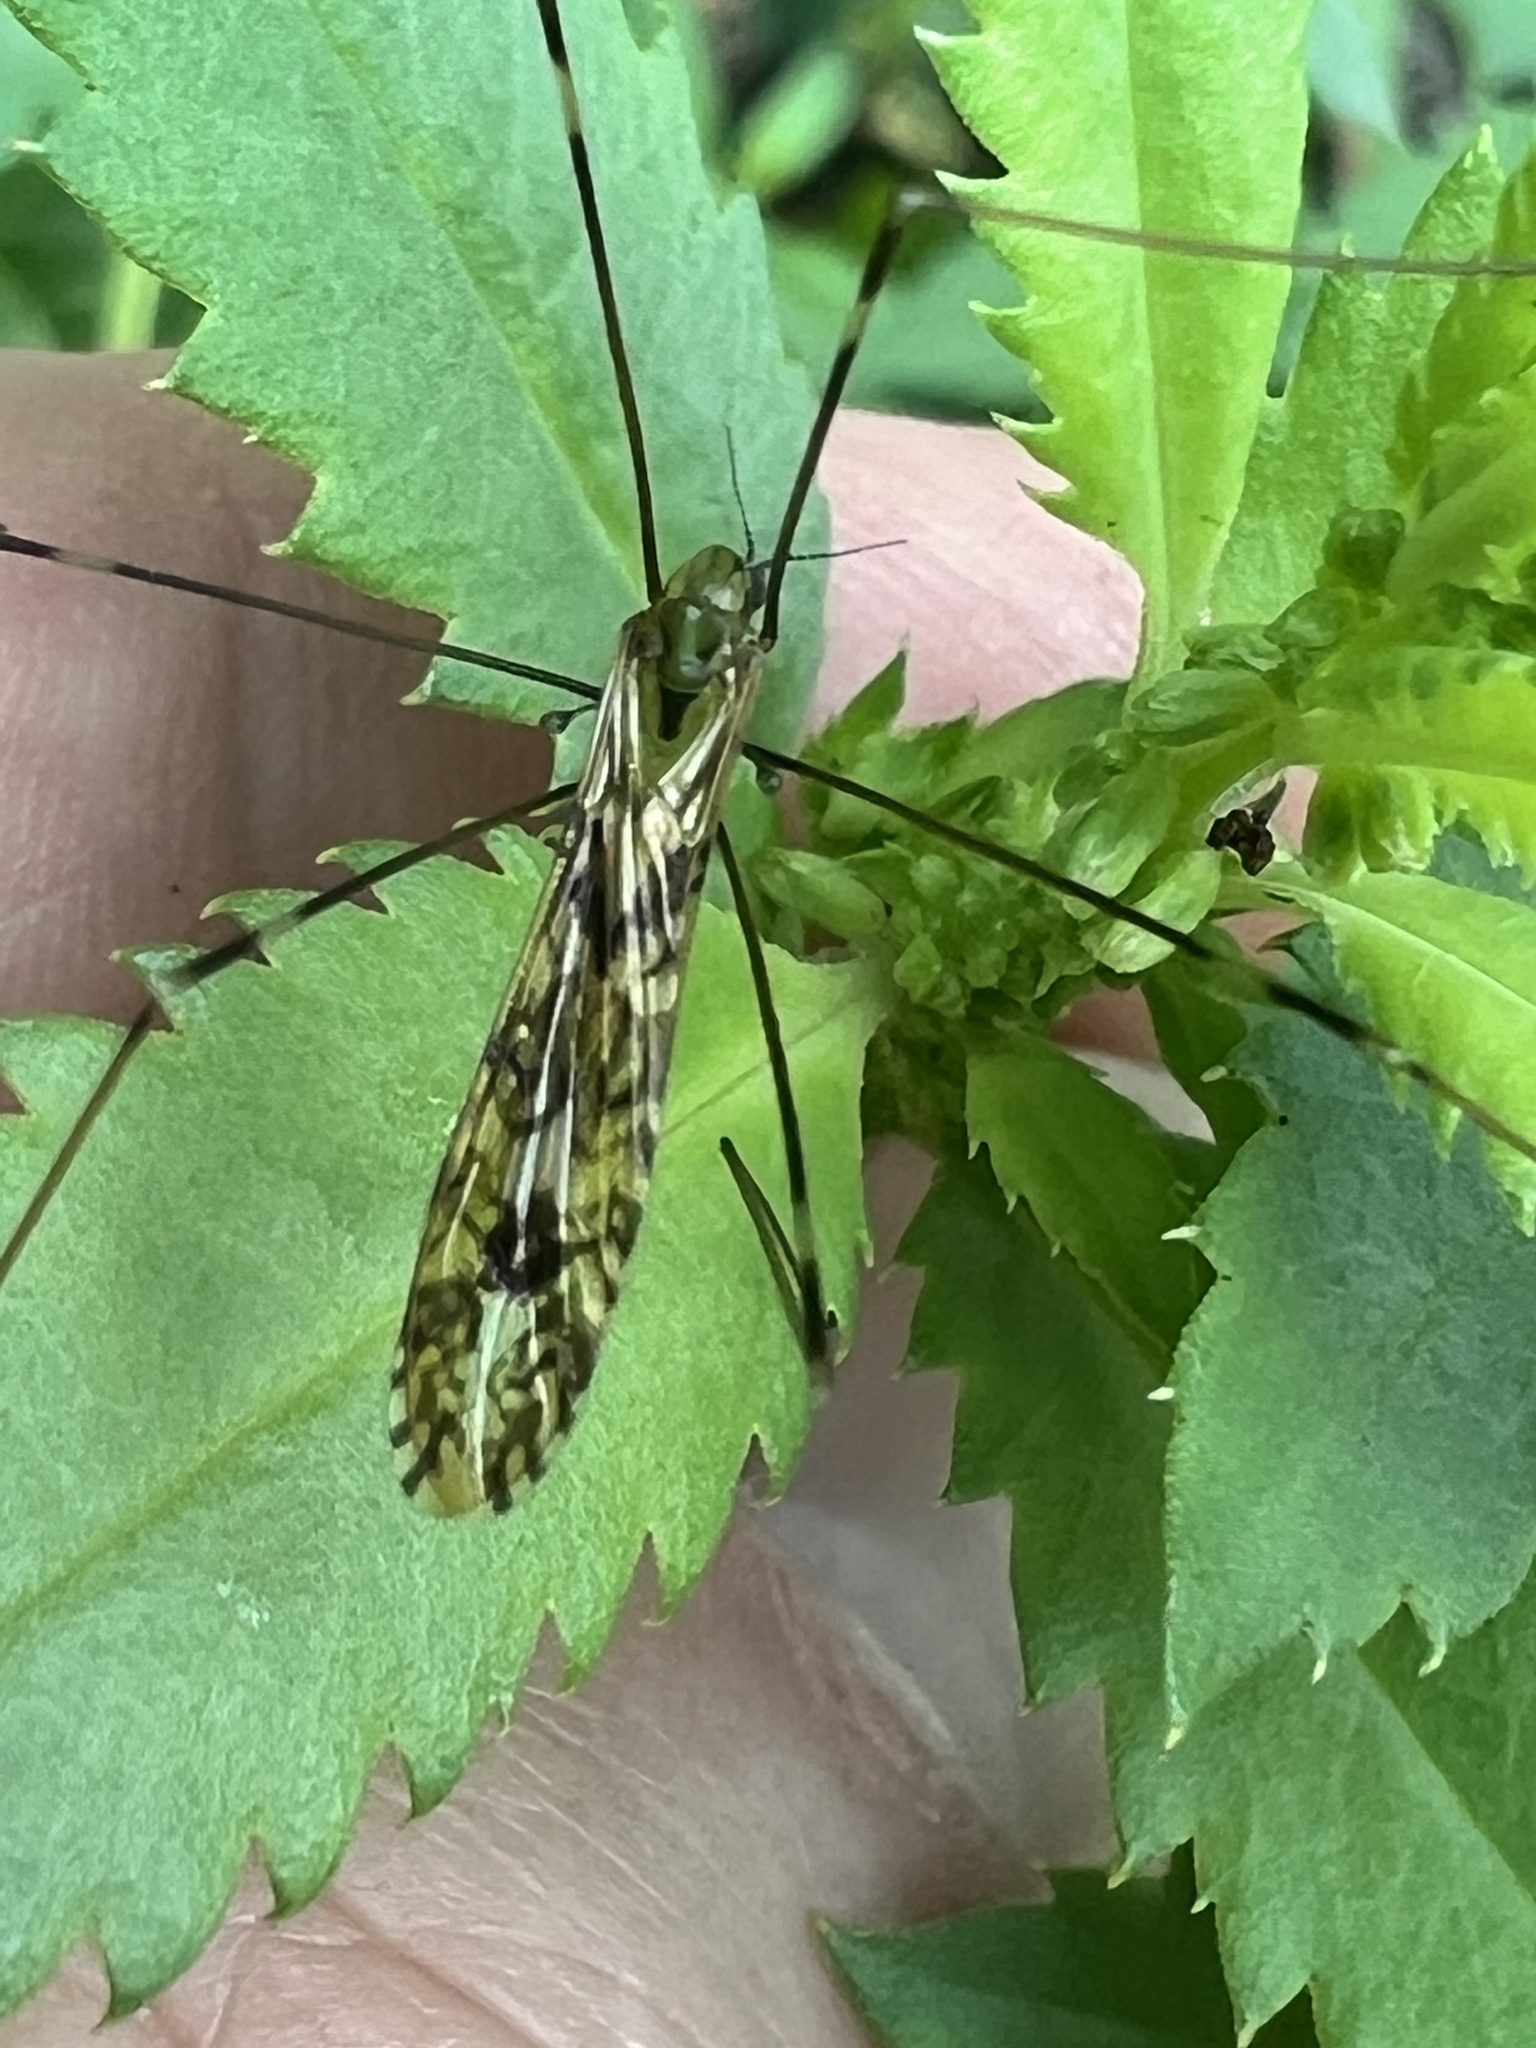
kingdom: Animalia
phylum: Arthropoda
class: Insecta
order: Diptera
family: Limoniidae
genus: Discobola
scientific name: Discobola tessellata
